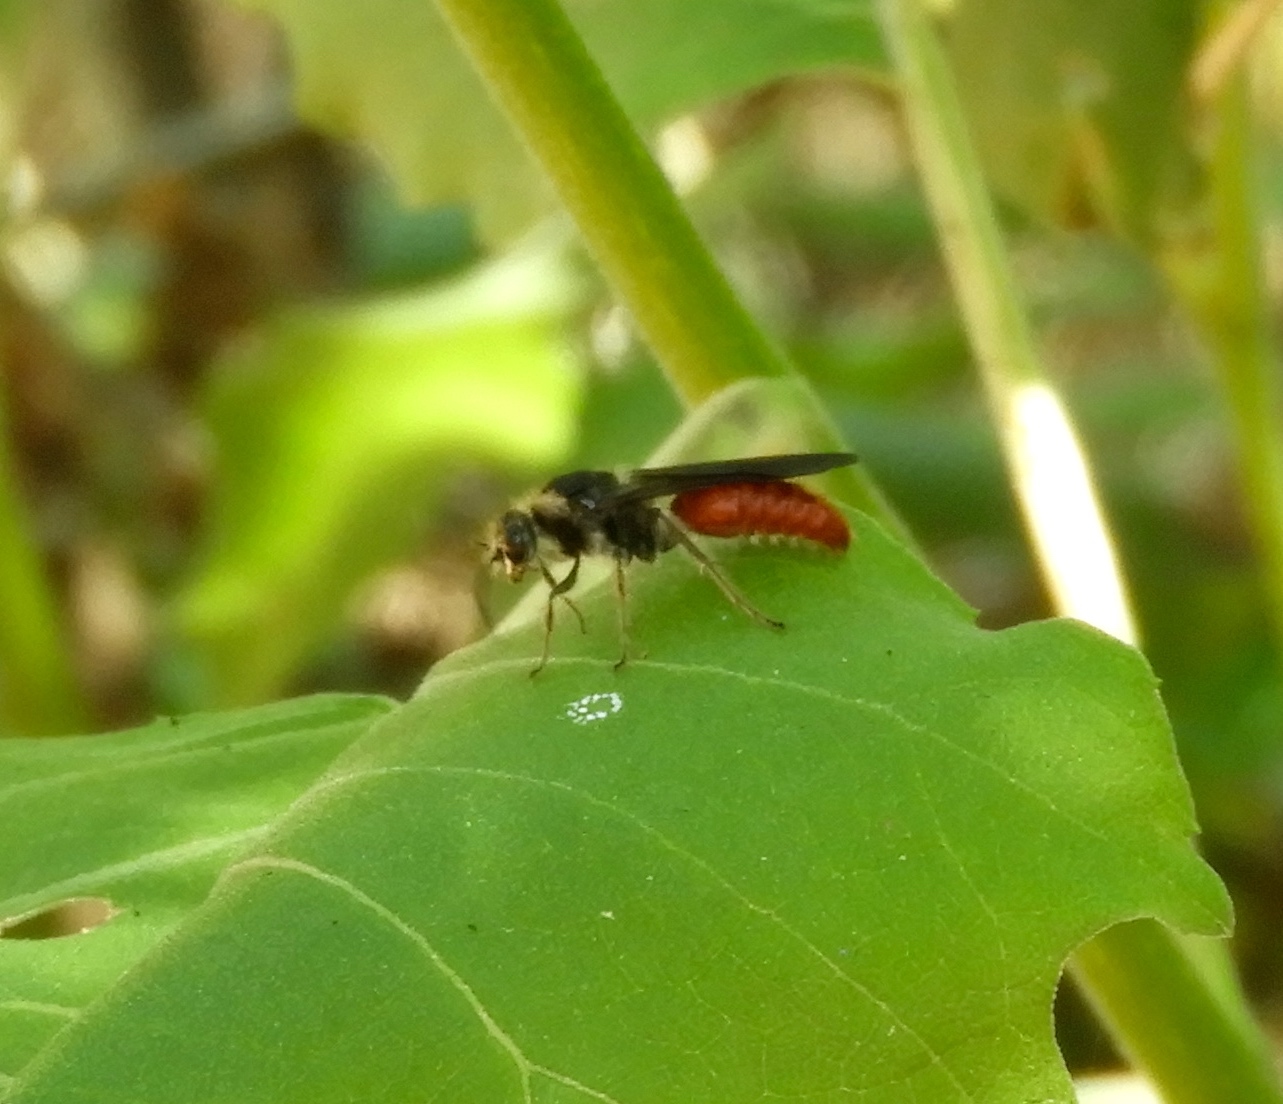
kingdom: Animalia
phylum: Arthropoda
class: Insecta
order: Hymenoptera
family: Mutillidae
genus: Timulla
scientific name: Timulla
